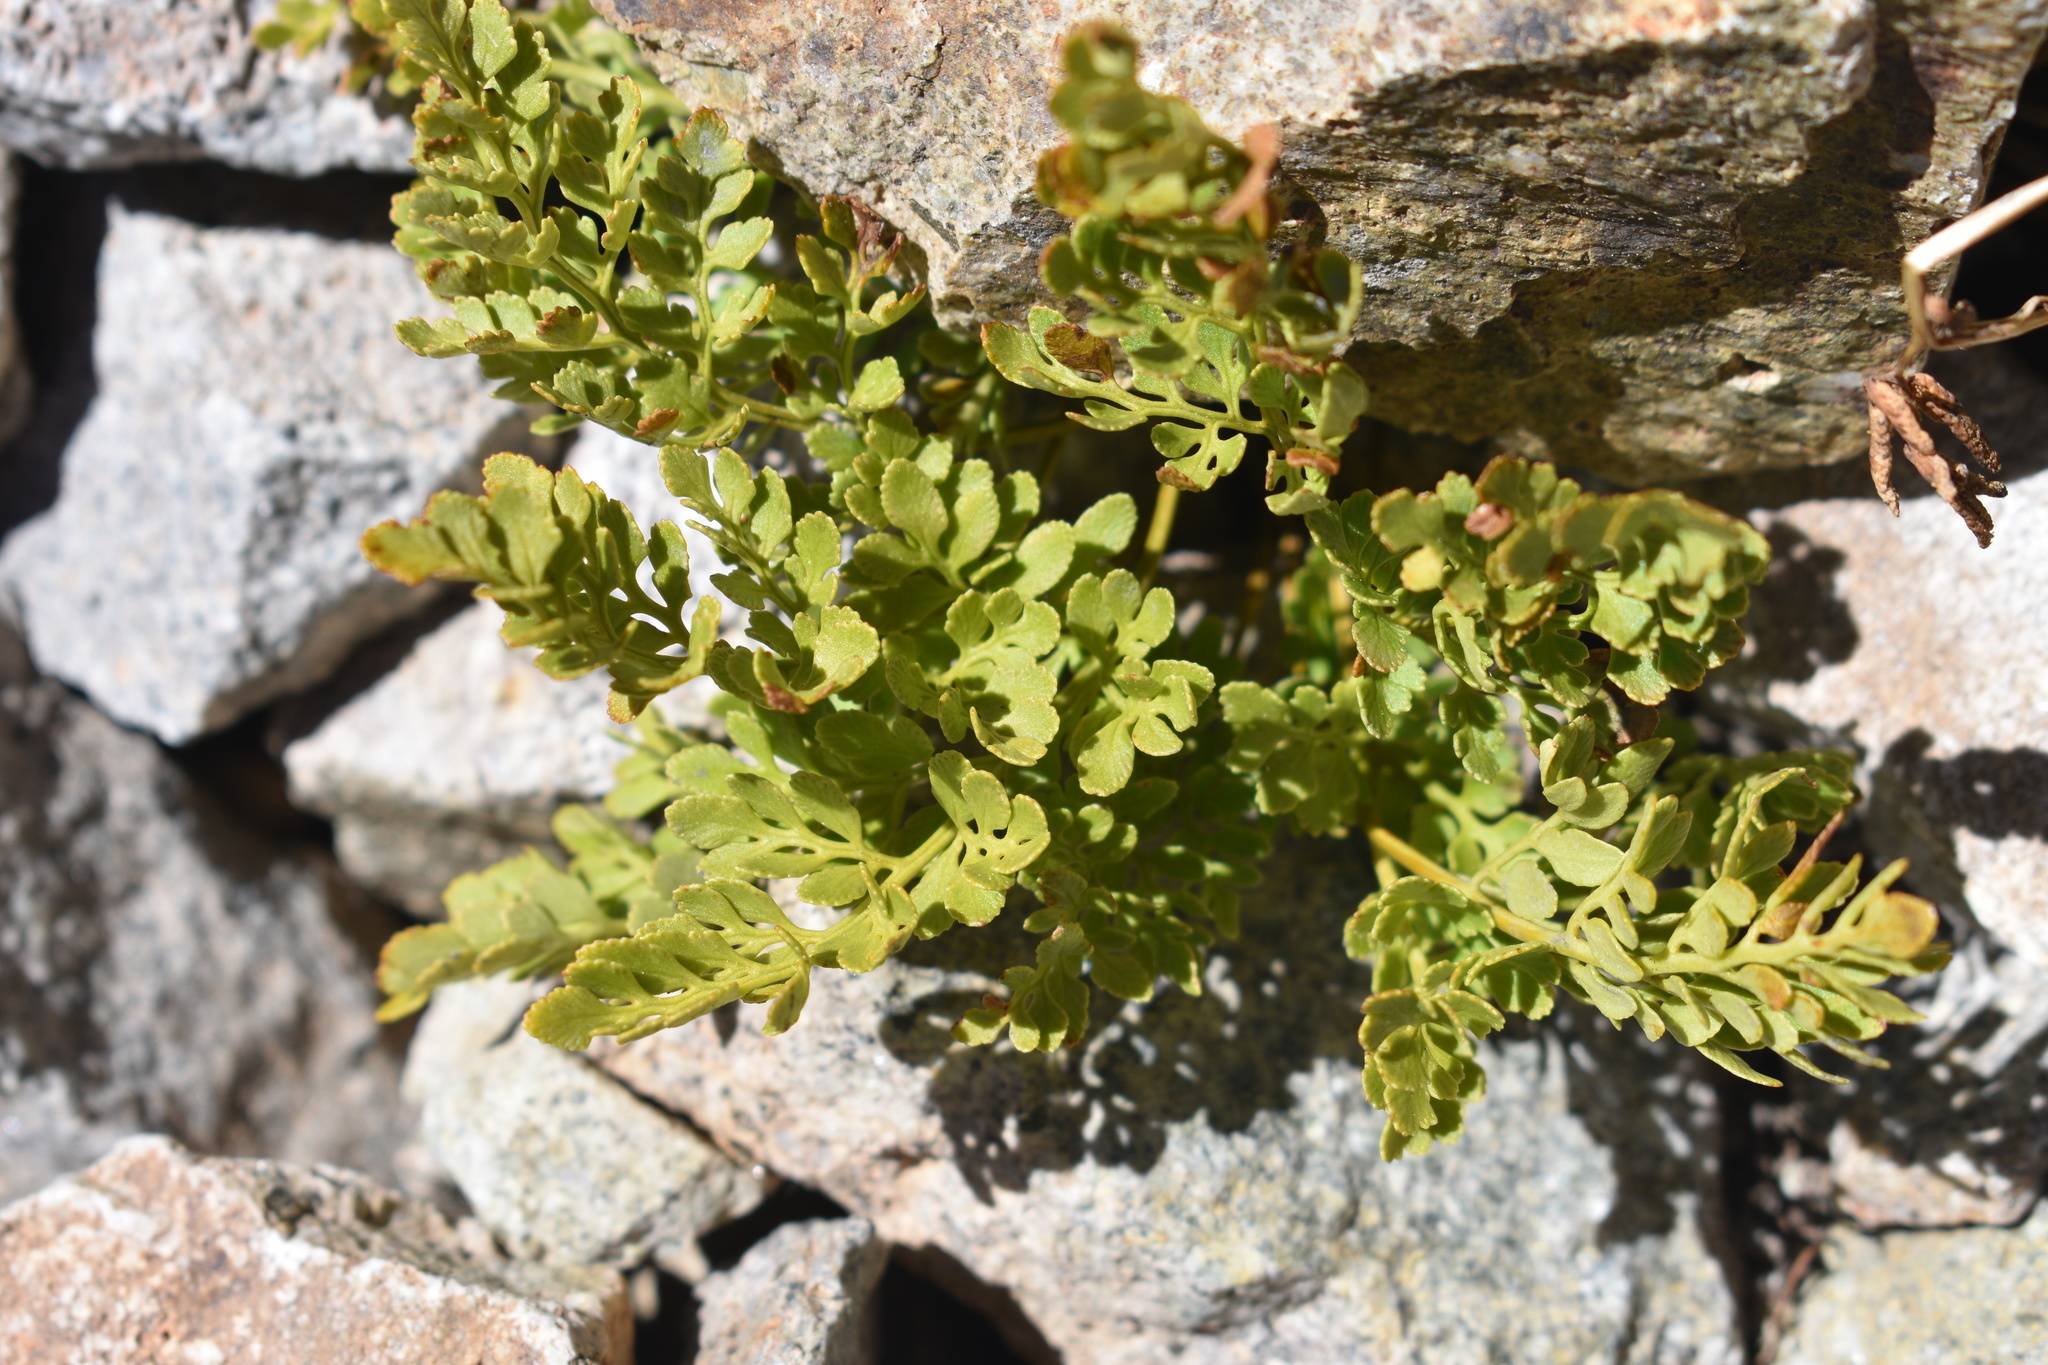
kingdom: Plantae
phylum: Tracheophyta
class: Polypodiopsida
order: Polypodiales
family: Pteridaceae
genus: Cryptogramma
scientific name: Cryptogramma acrostichoides
